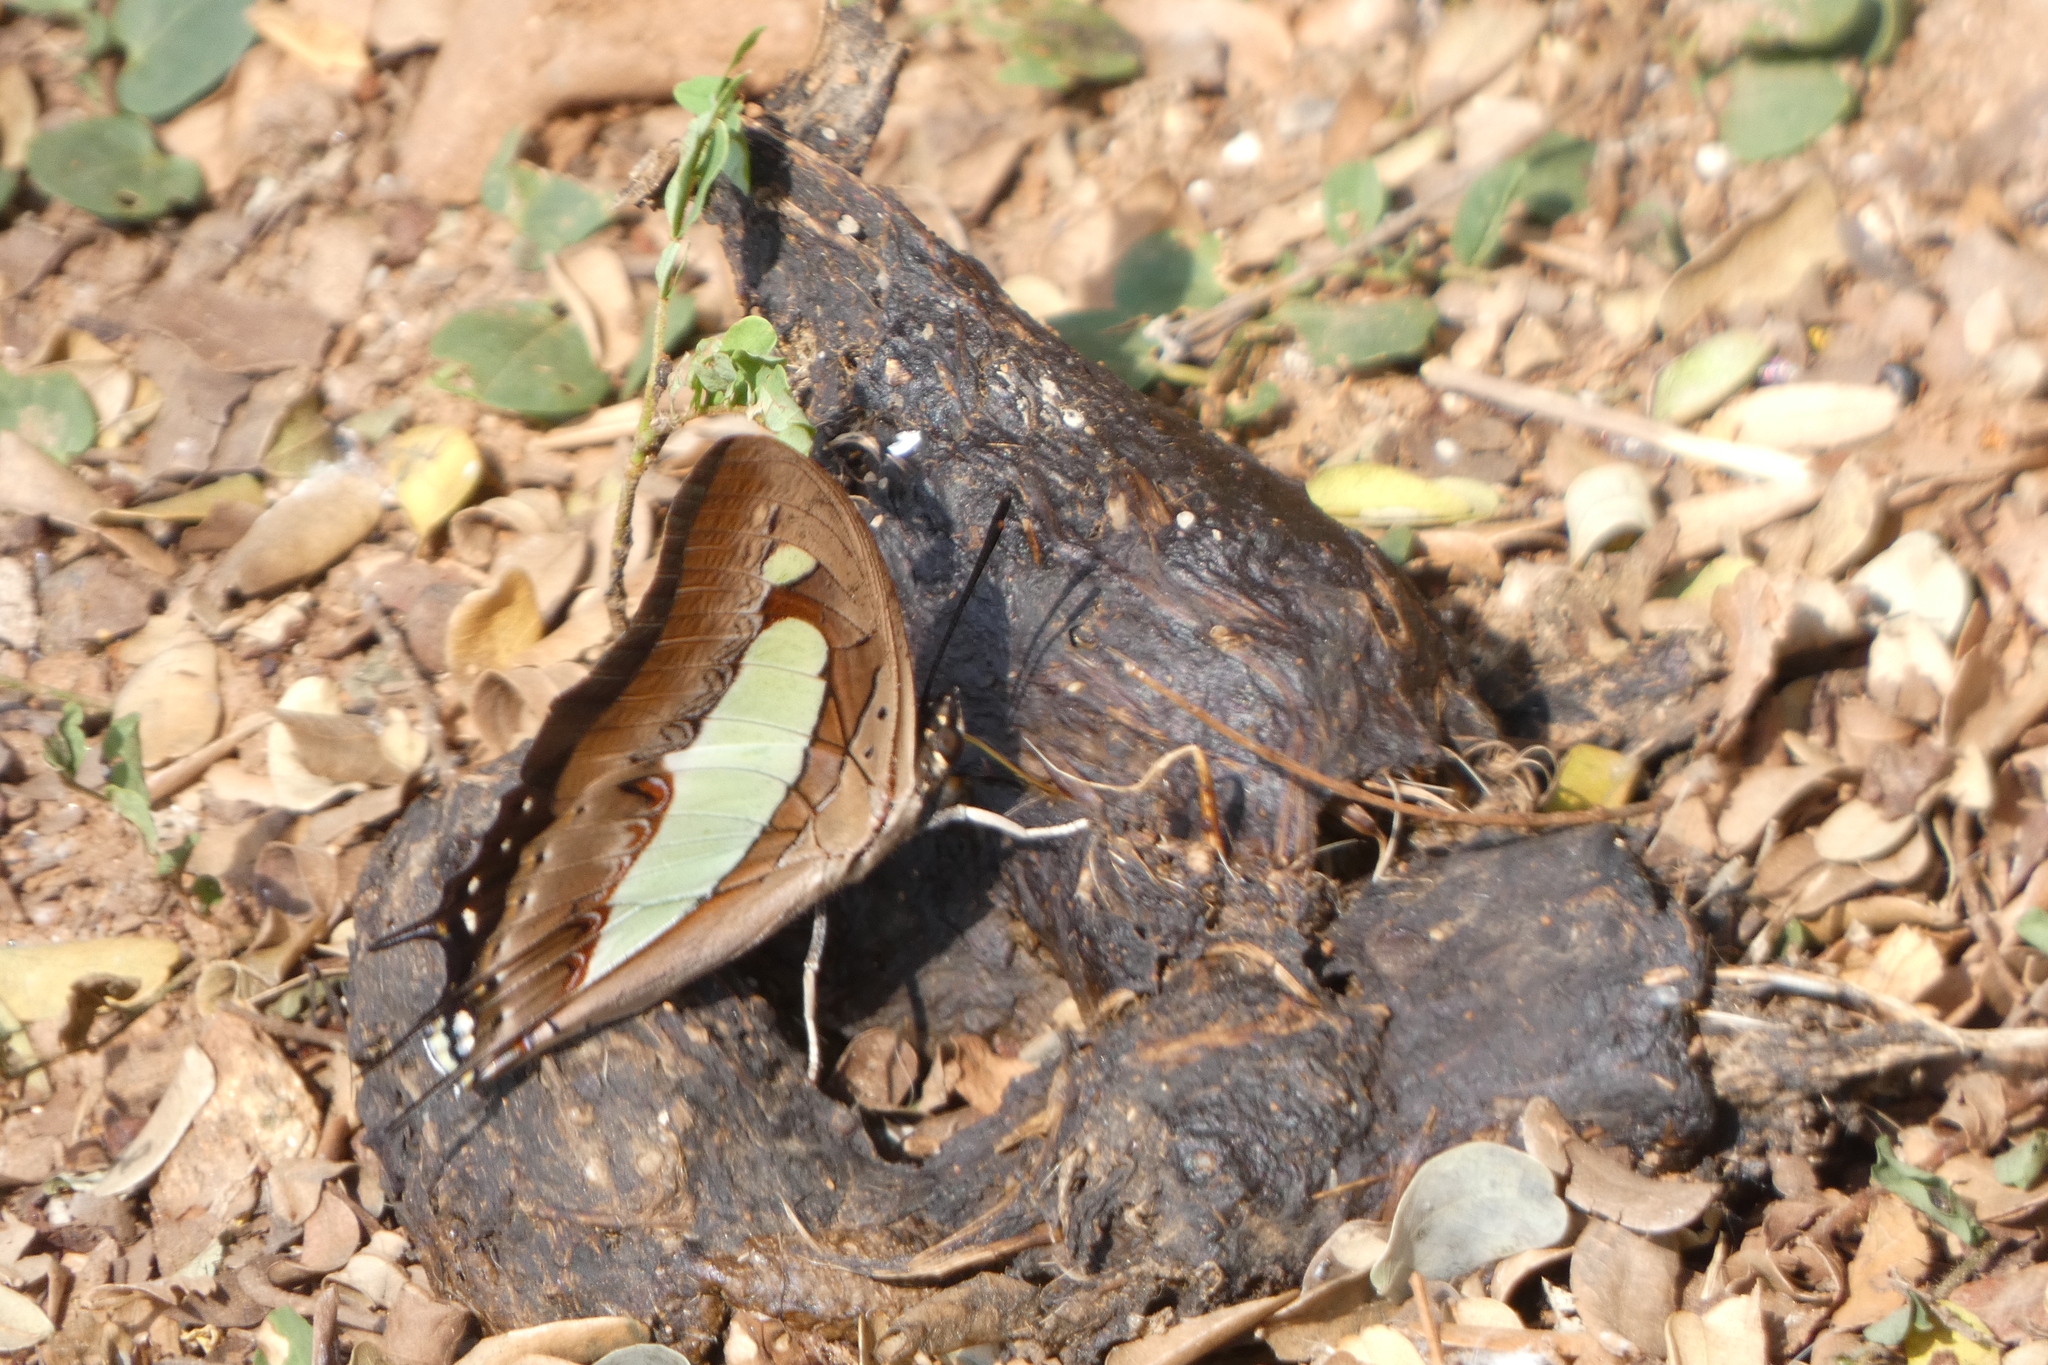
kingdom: Animalia
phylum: Arthropoda
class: Insecta
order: Lepidoptera
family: Nymphalidae
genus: Polyura
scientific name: Polyura
